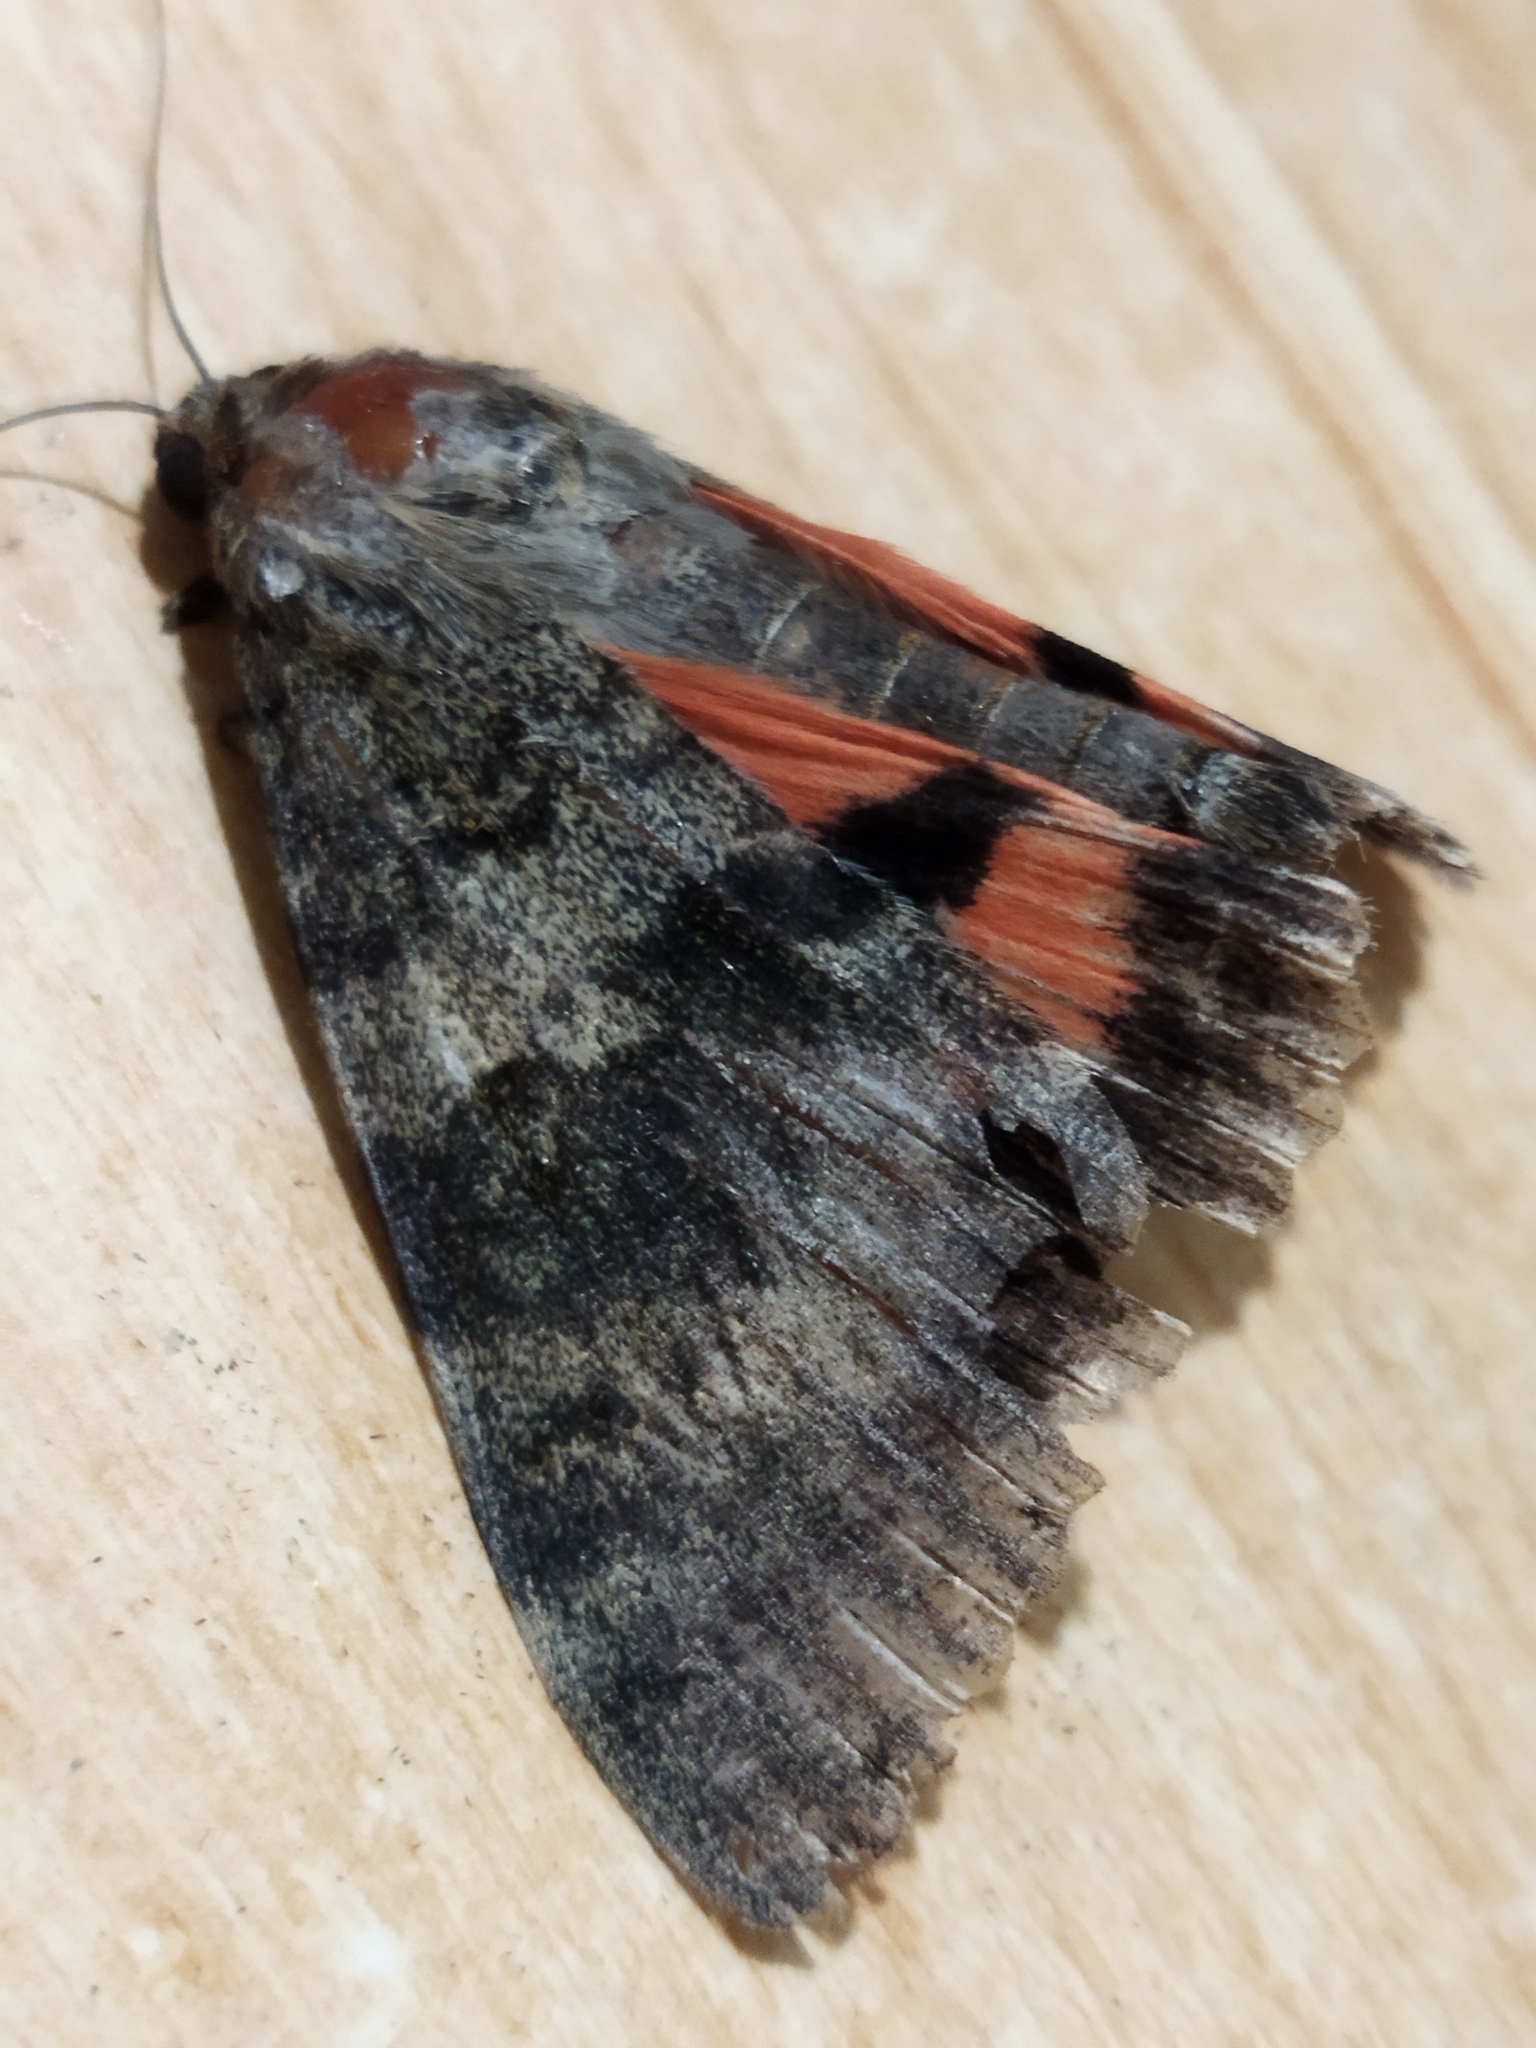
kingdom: Animalia
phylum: Arthropoda
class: Insecta
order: Lepidoptera
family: Erebidae
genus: Catocala
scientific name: Catocala elocata
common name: French red underwing
